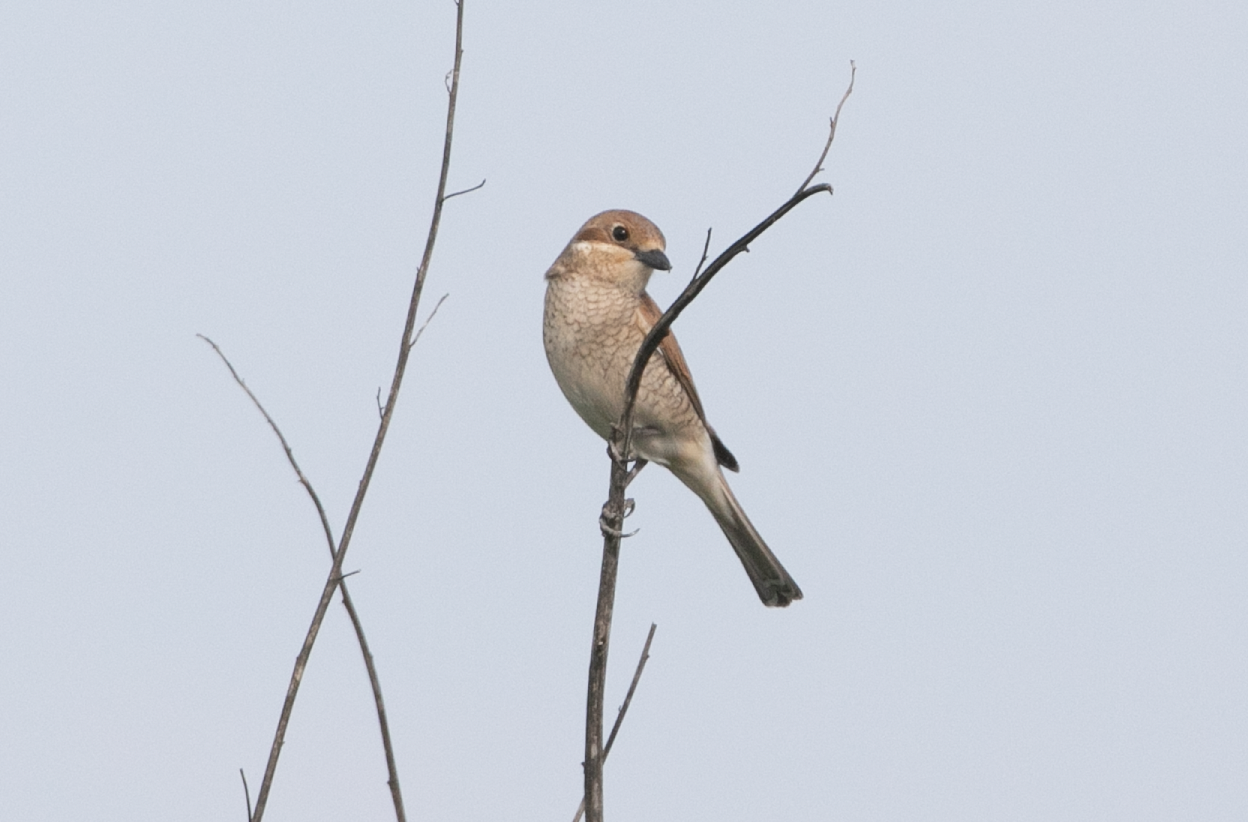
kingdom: Animalia
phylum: Chordata
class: Aves
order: Passeriformes
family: Laniidae
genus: Lanius
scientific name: Lanius collurio
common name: Red-backed shrike
